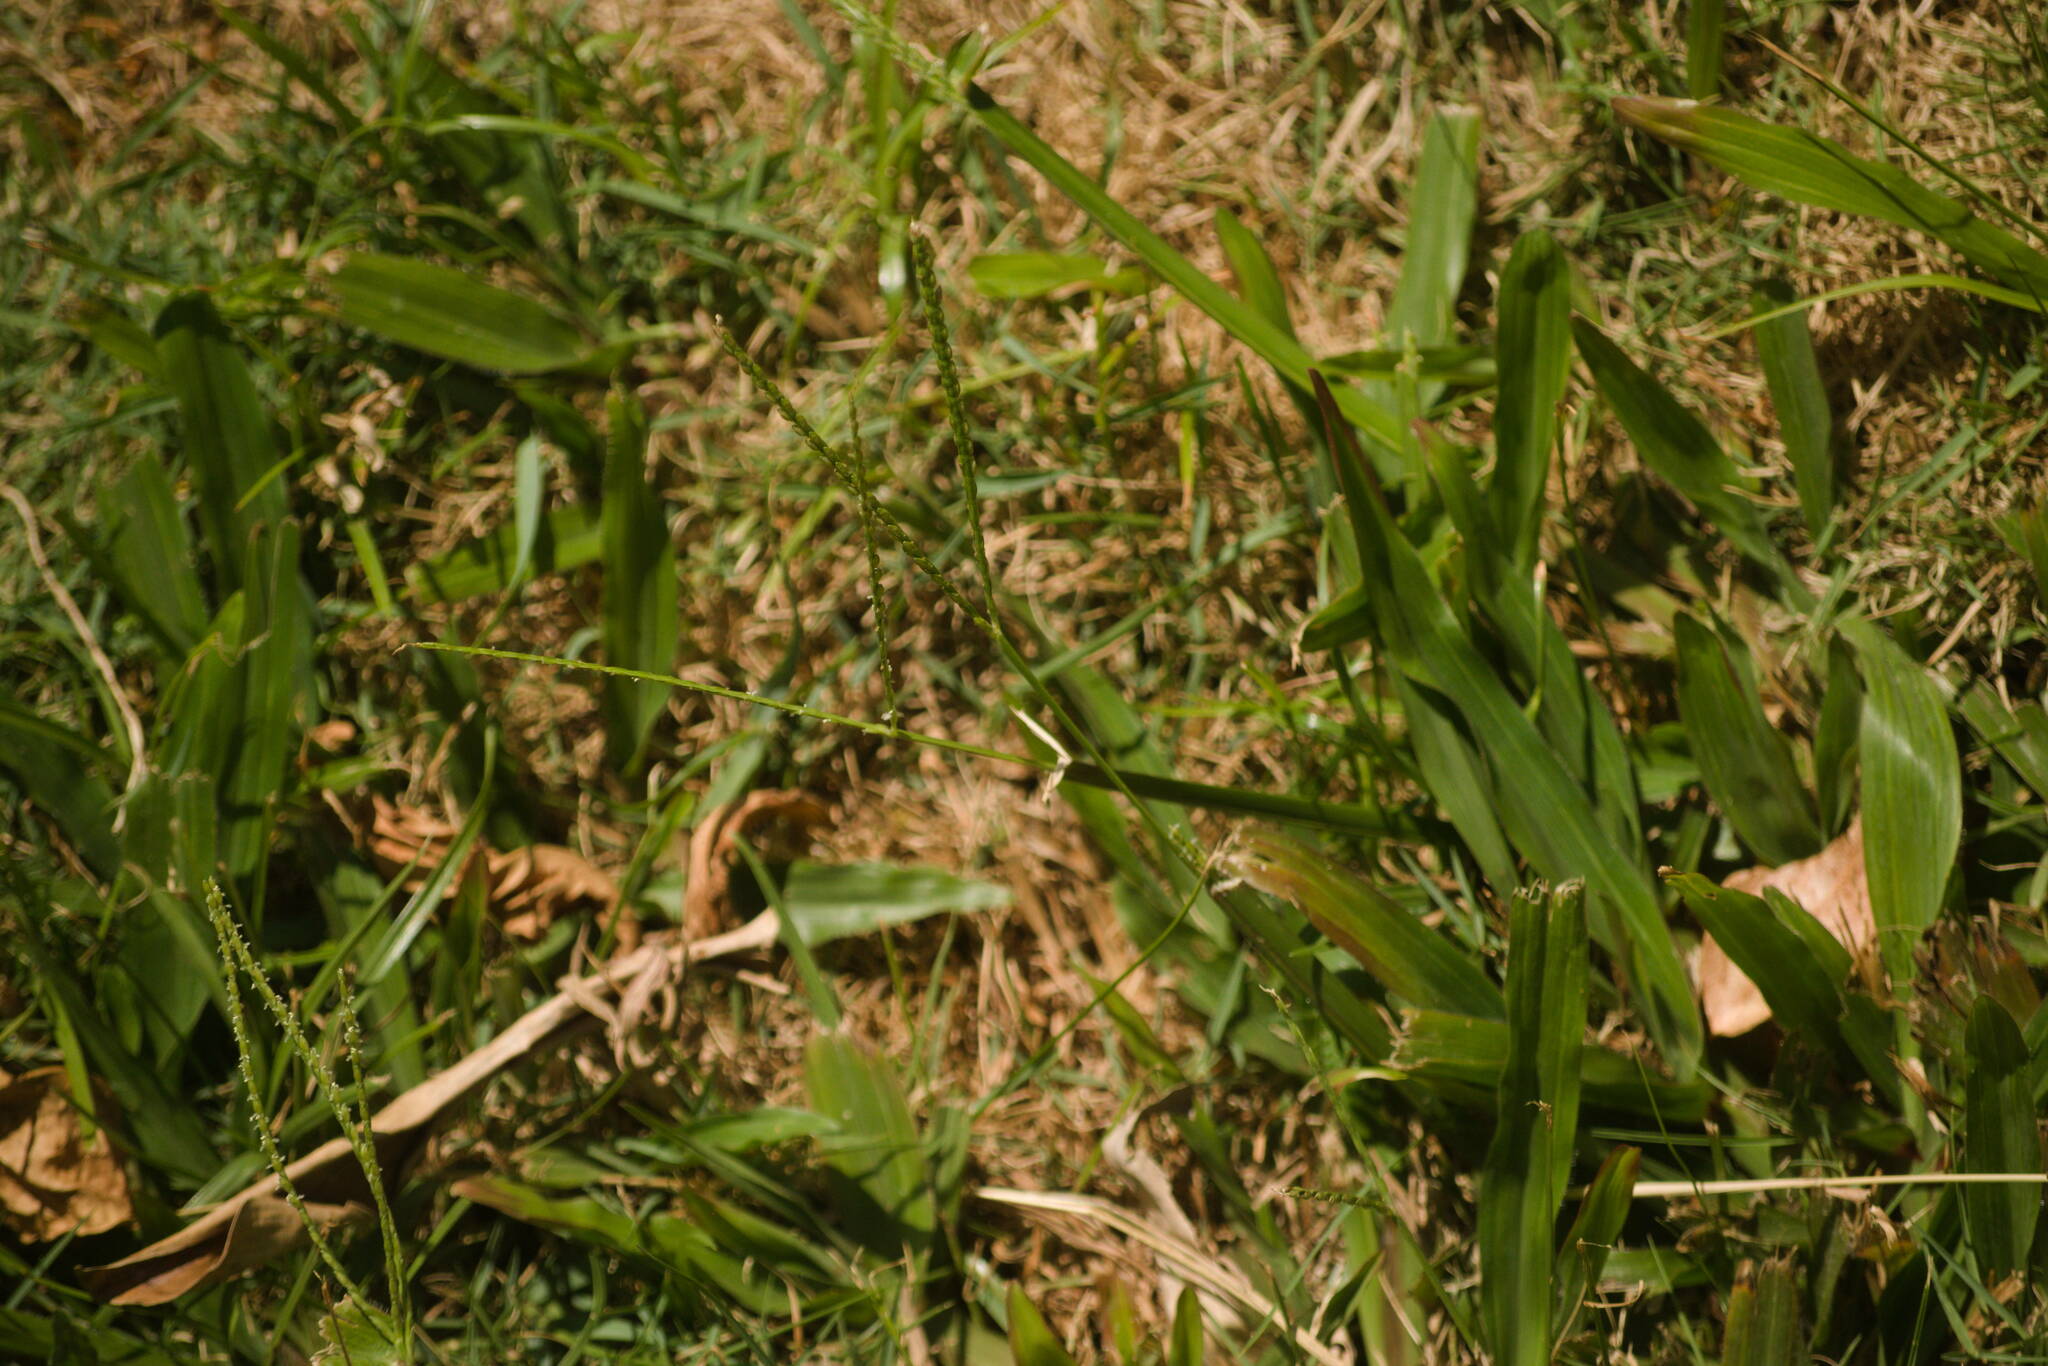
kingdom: Plantae
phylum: Tracheophyta
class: Liliopsida
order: Poales
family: Poaceae
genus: Axonopus
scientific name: Axonopus compressus
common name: American carpet grass
